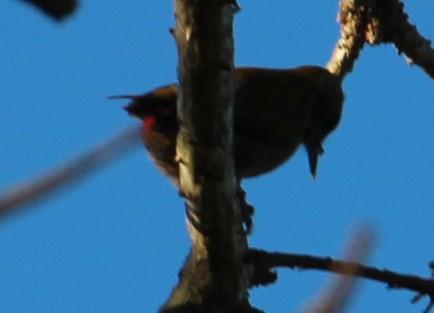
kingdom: Animalia
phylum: Chordata
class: Aves
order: Piciformes
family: Picidae
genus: Dendropicos
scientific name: Dendropicos griseocephalus
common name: Olive woodpecker
